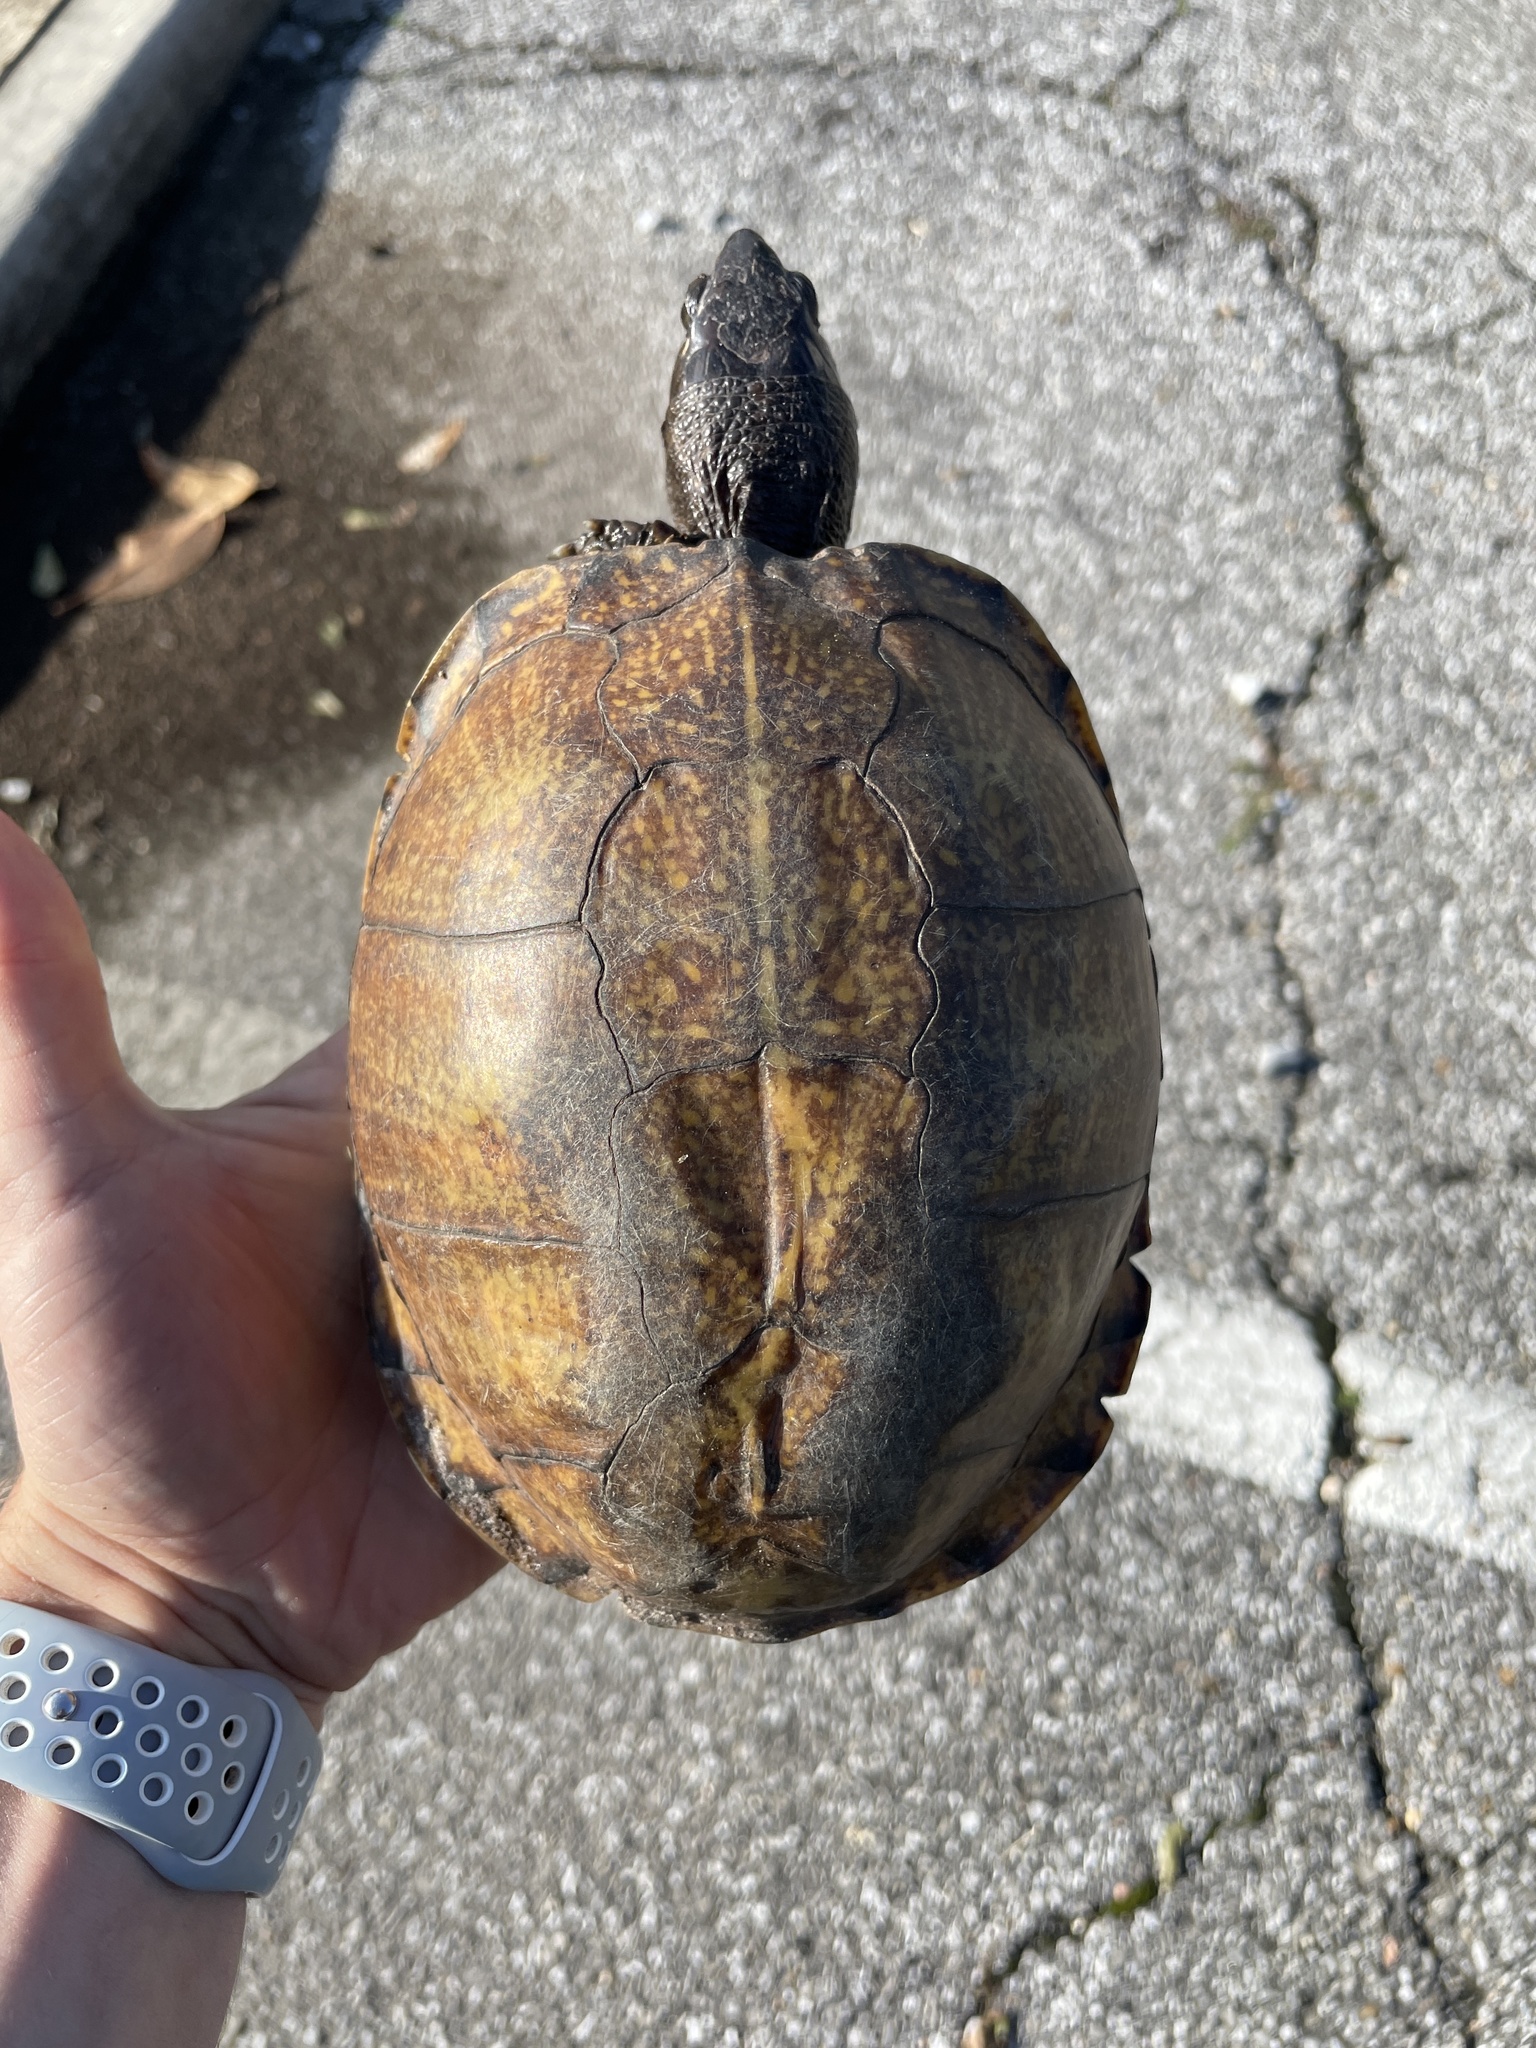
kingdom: Animalia
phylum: Chordata
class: Testudines
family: Emydidae
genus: Terrapene
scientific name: Terrapene carolina
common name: Common box turtle
